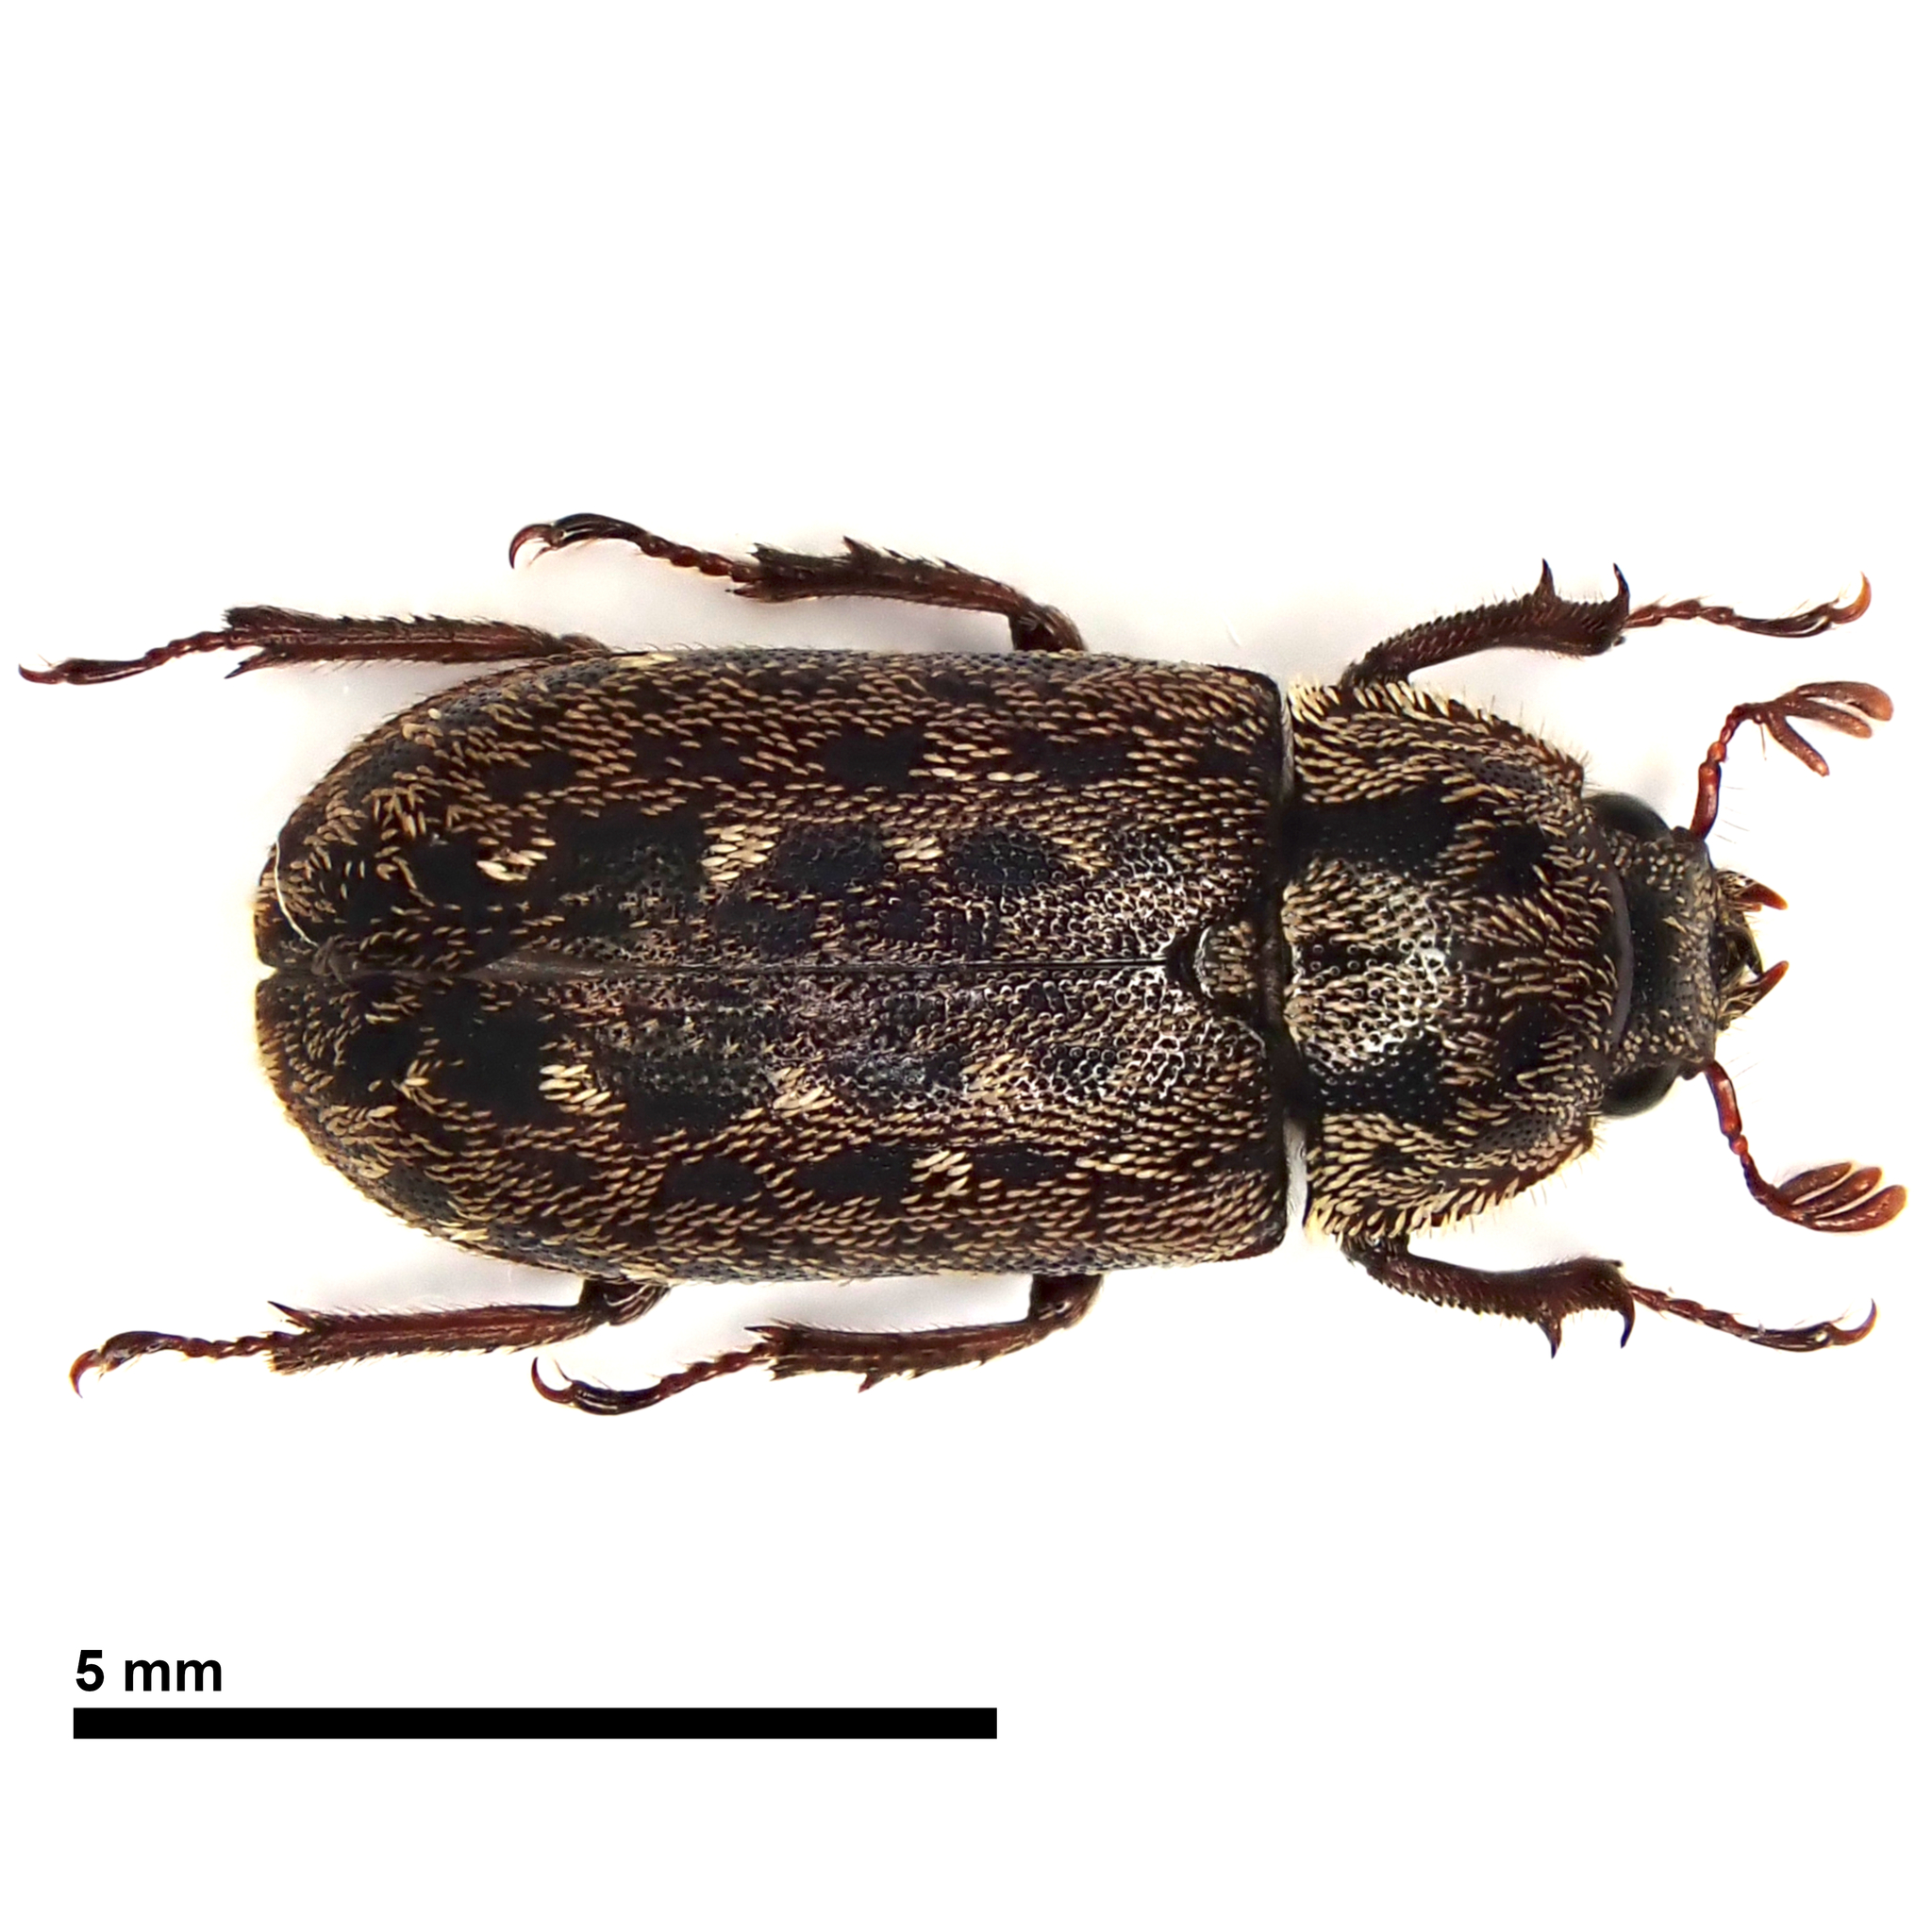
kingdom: Animalia
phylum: Arthropoda
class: Insecta
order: Coleoptera
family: Lucanidae
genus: Mitophyllus
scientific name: Mitophyllus arcuatus
